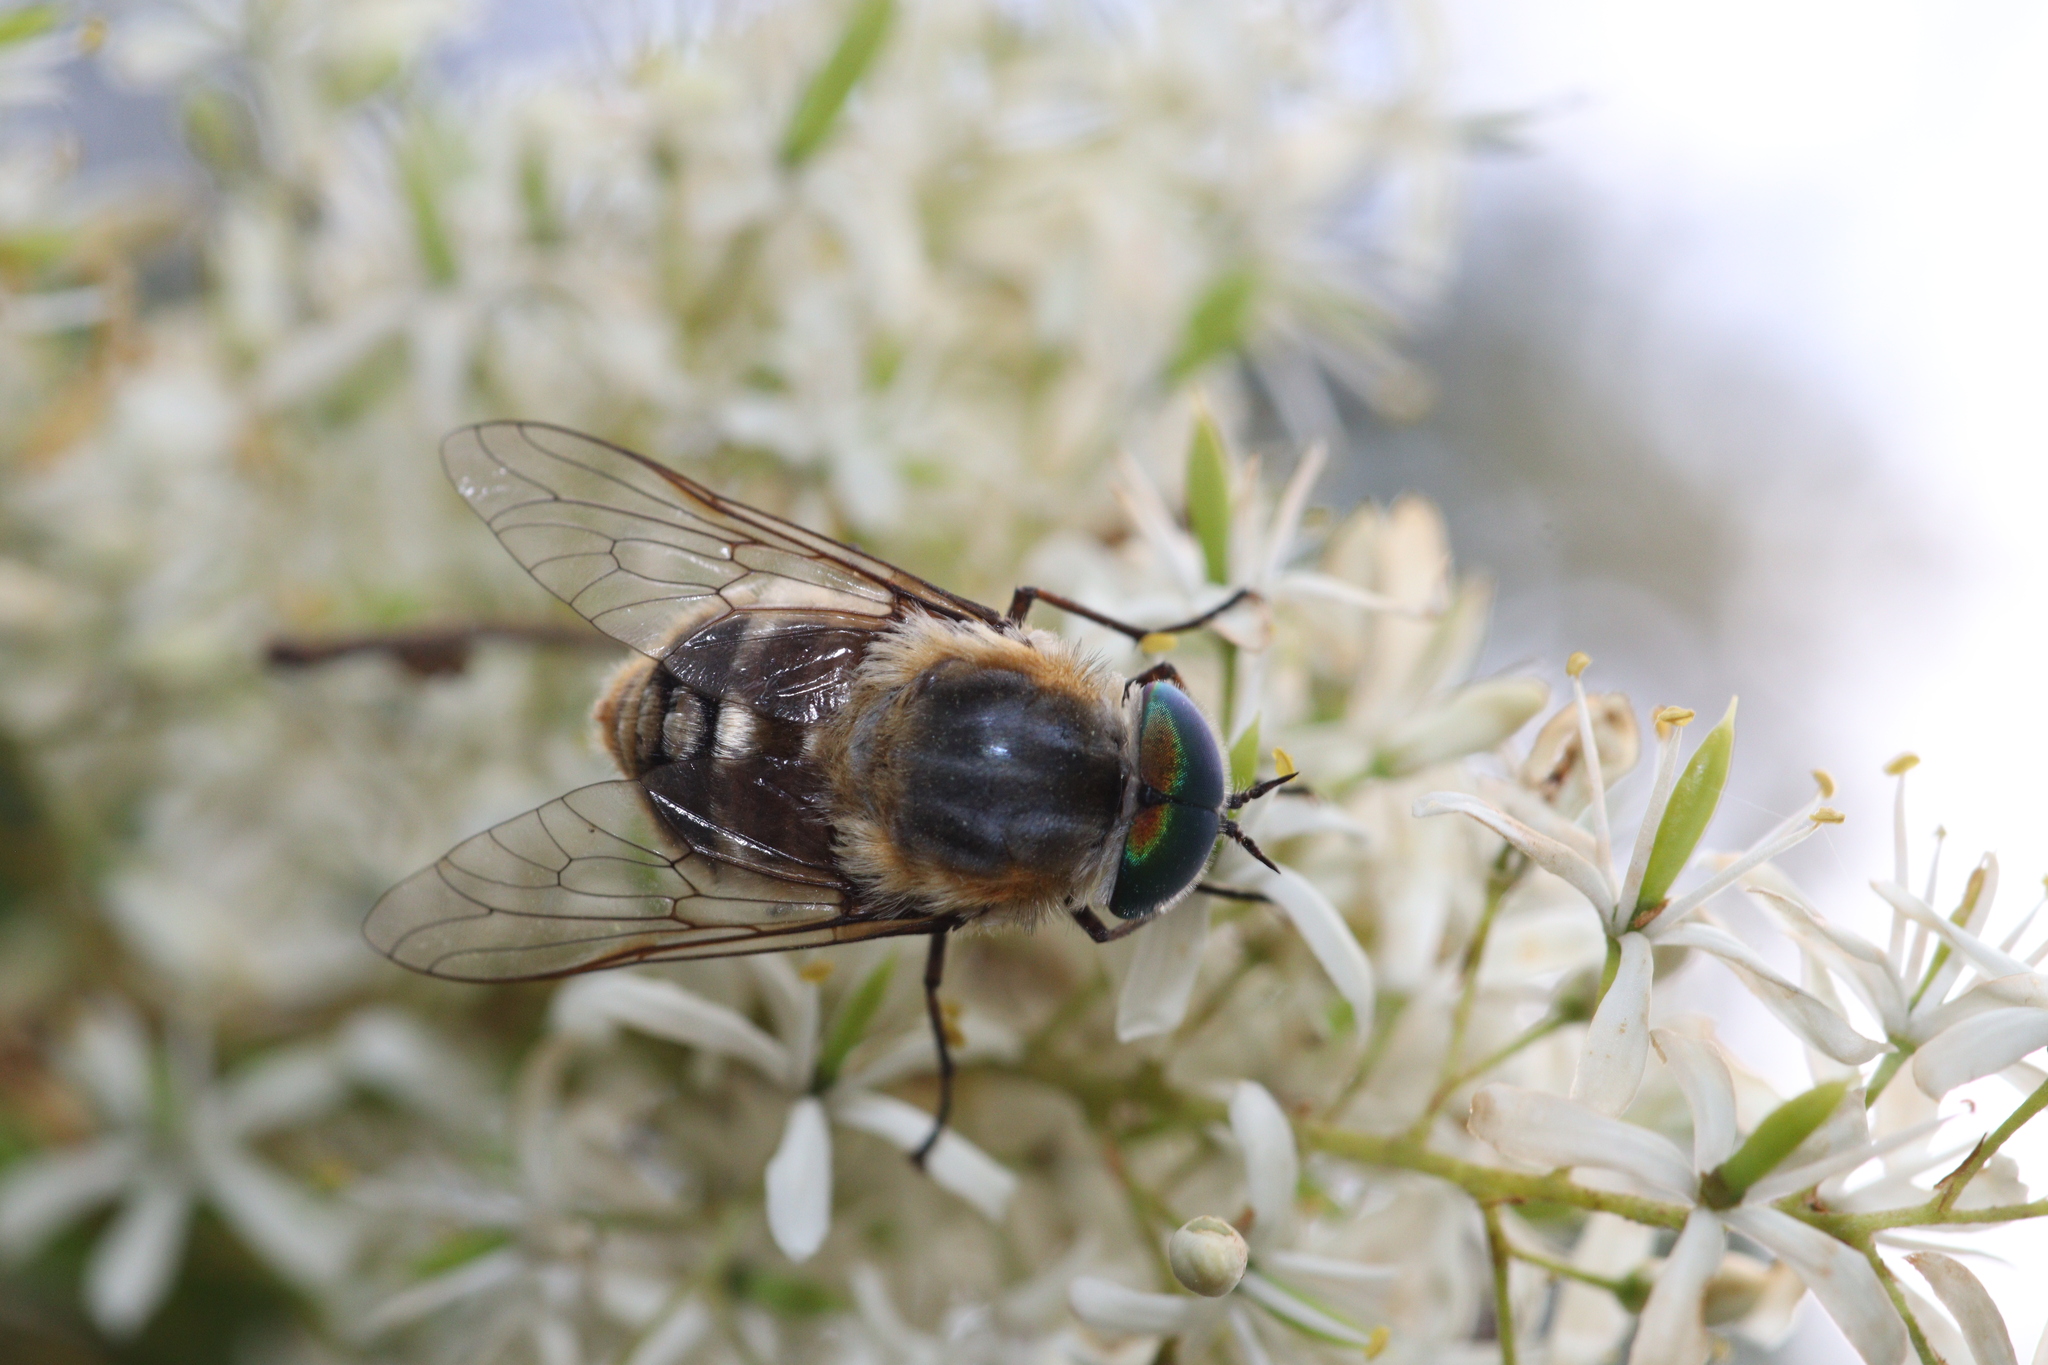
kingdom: Plantae
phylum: Tracheophyta
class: Magnoliopsida
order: Apiales
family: Pittosporaceae
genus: Bursaria
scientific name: Bursaria spinosa
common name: Australian blackthorn
